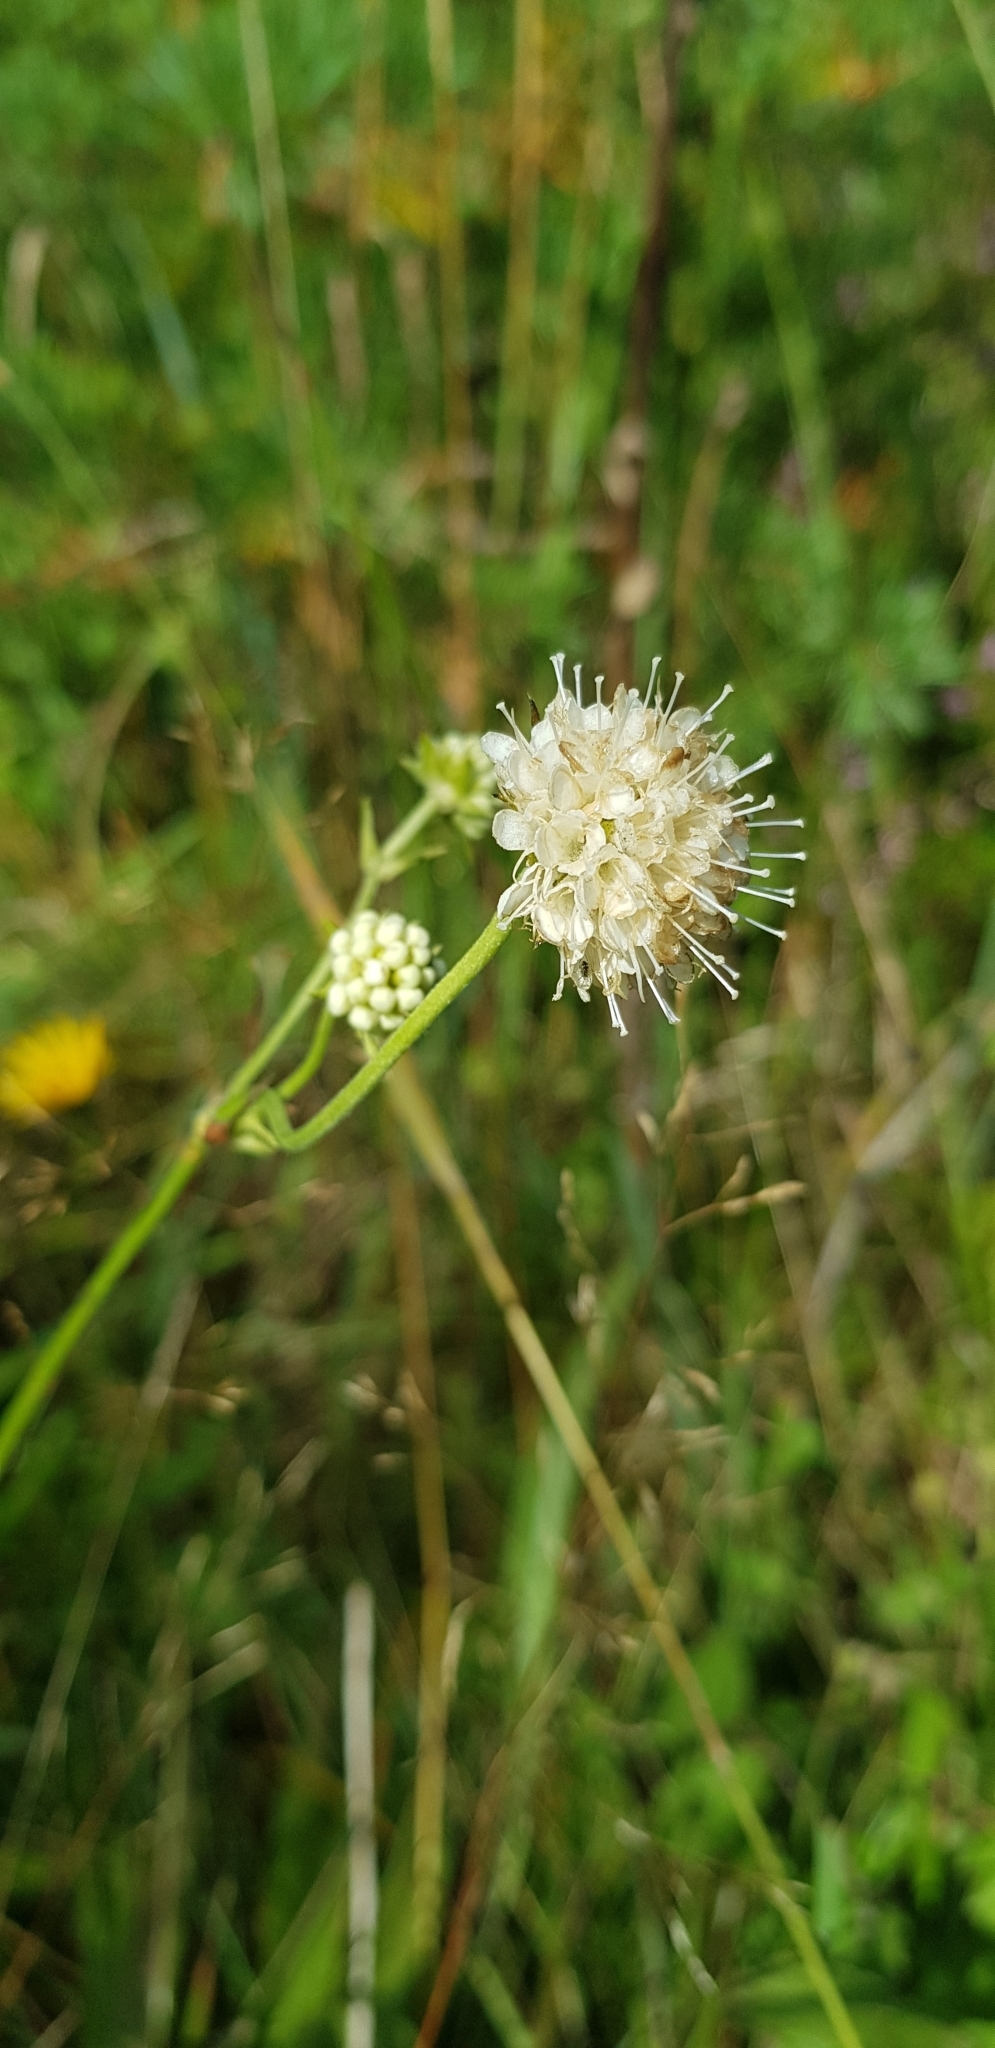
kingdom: Plantae
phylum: Tracheophyta
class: Magnoliopsida
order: Dipsacales
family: Caprifoliaceae
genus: Succisa
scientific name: Succisa pratensis
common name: Devil's-bit
